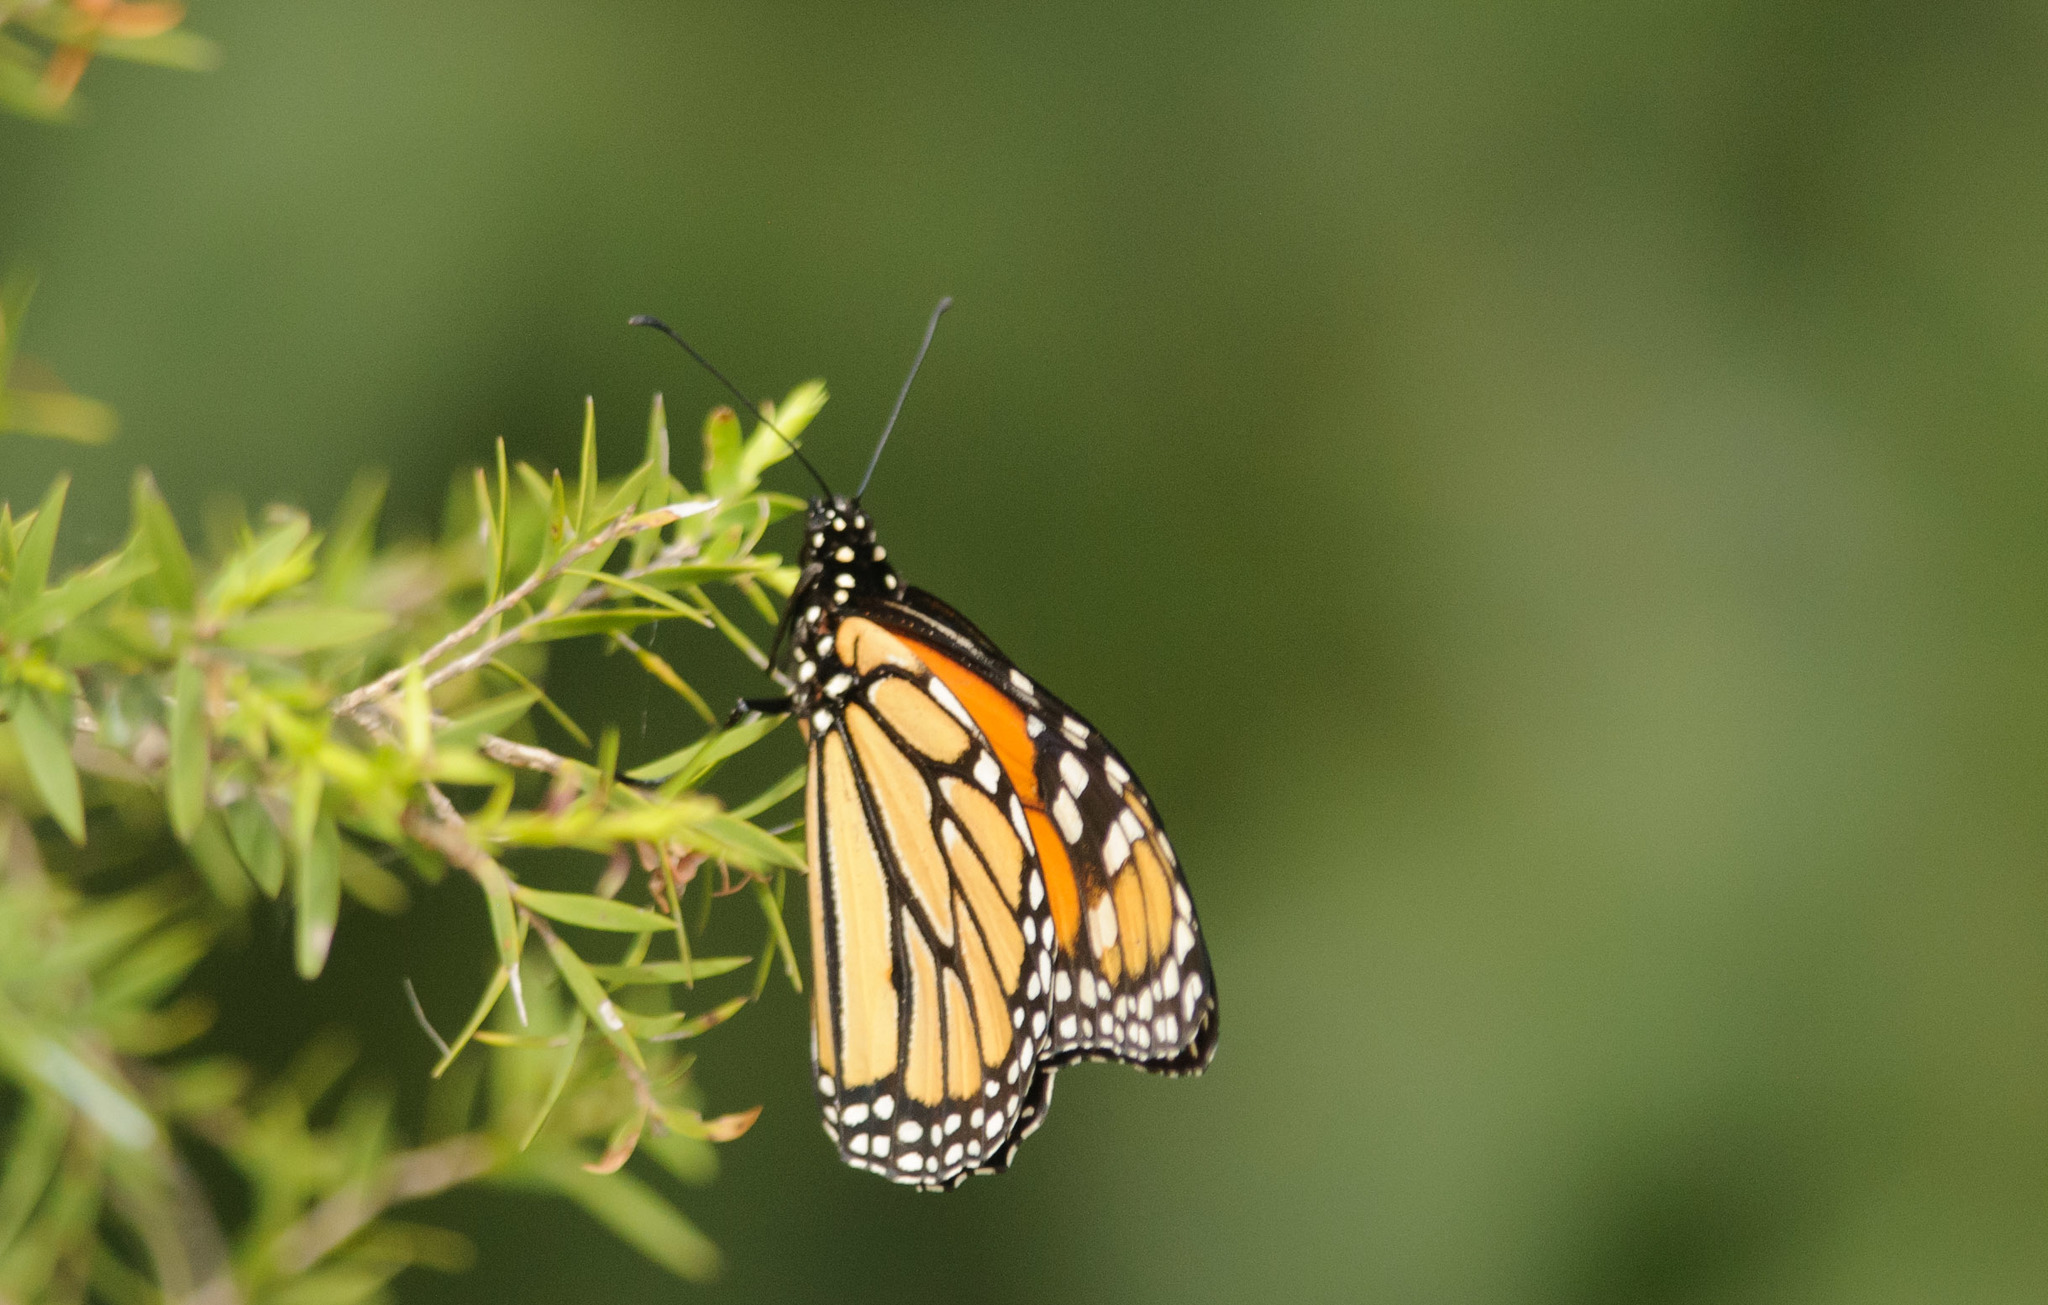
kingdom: Animalia
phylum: Arthropoda
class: Insecta
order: Lepidoptera
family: Nymphalidae
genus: Danaus
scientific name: Danaus plexippus
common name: Monarch
